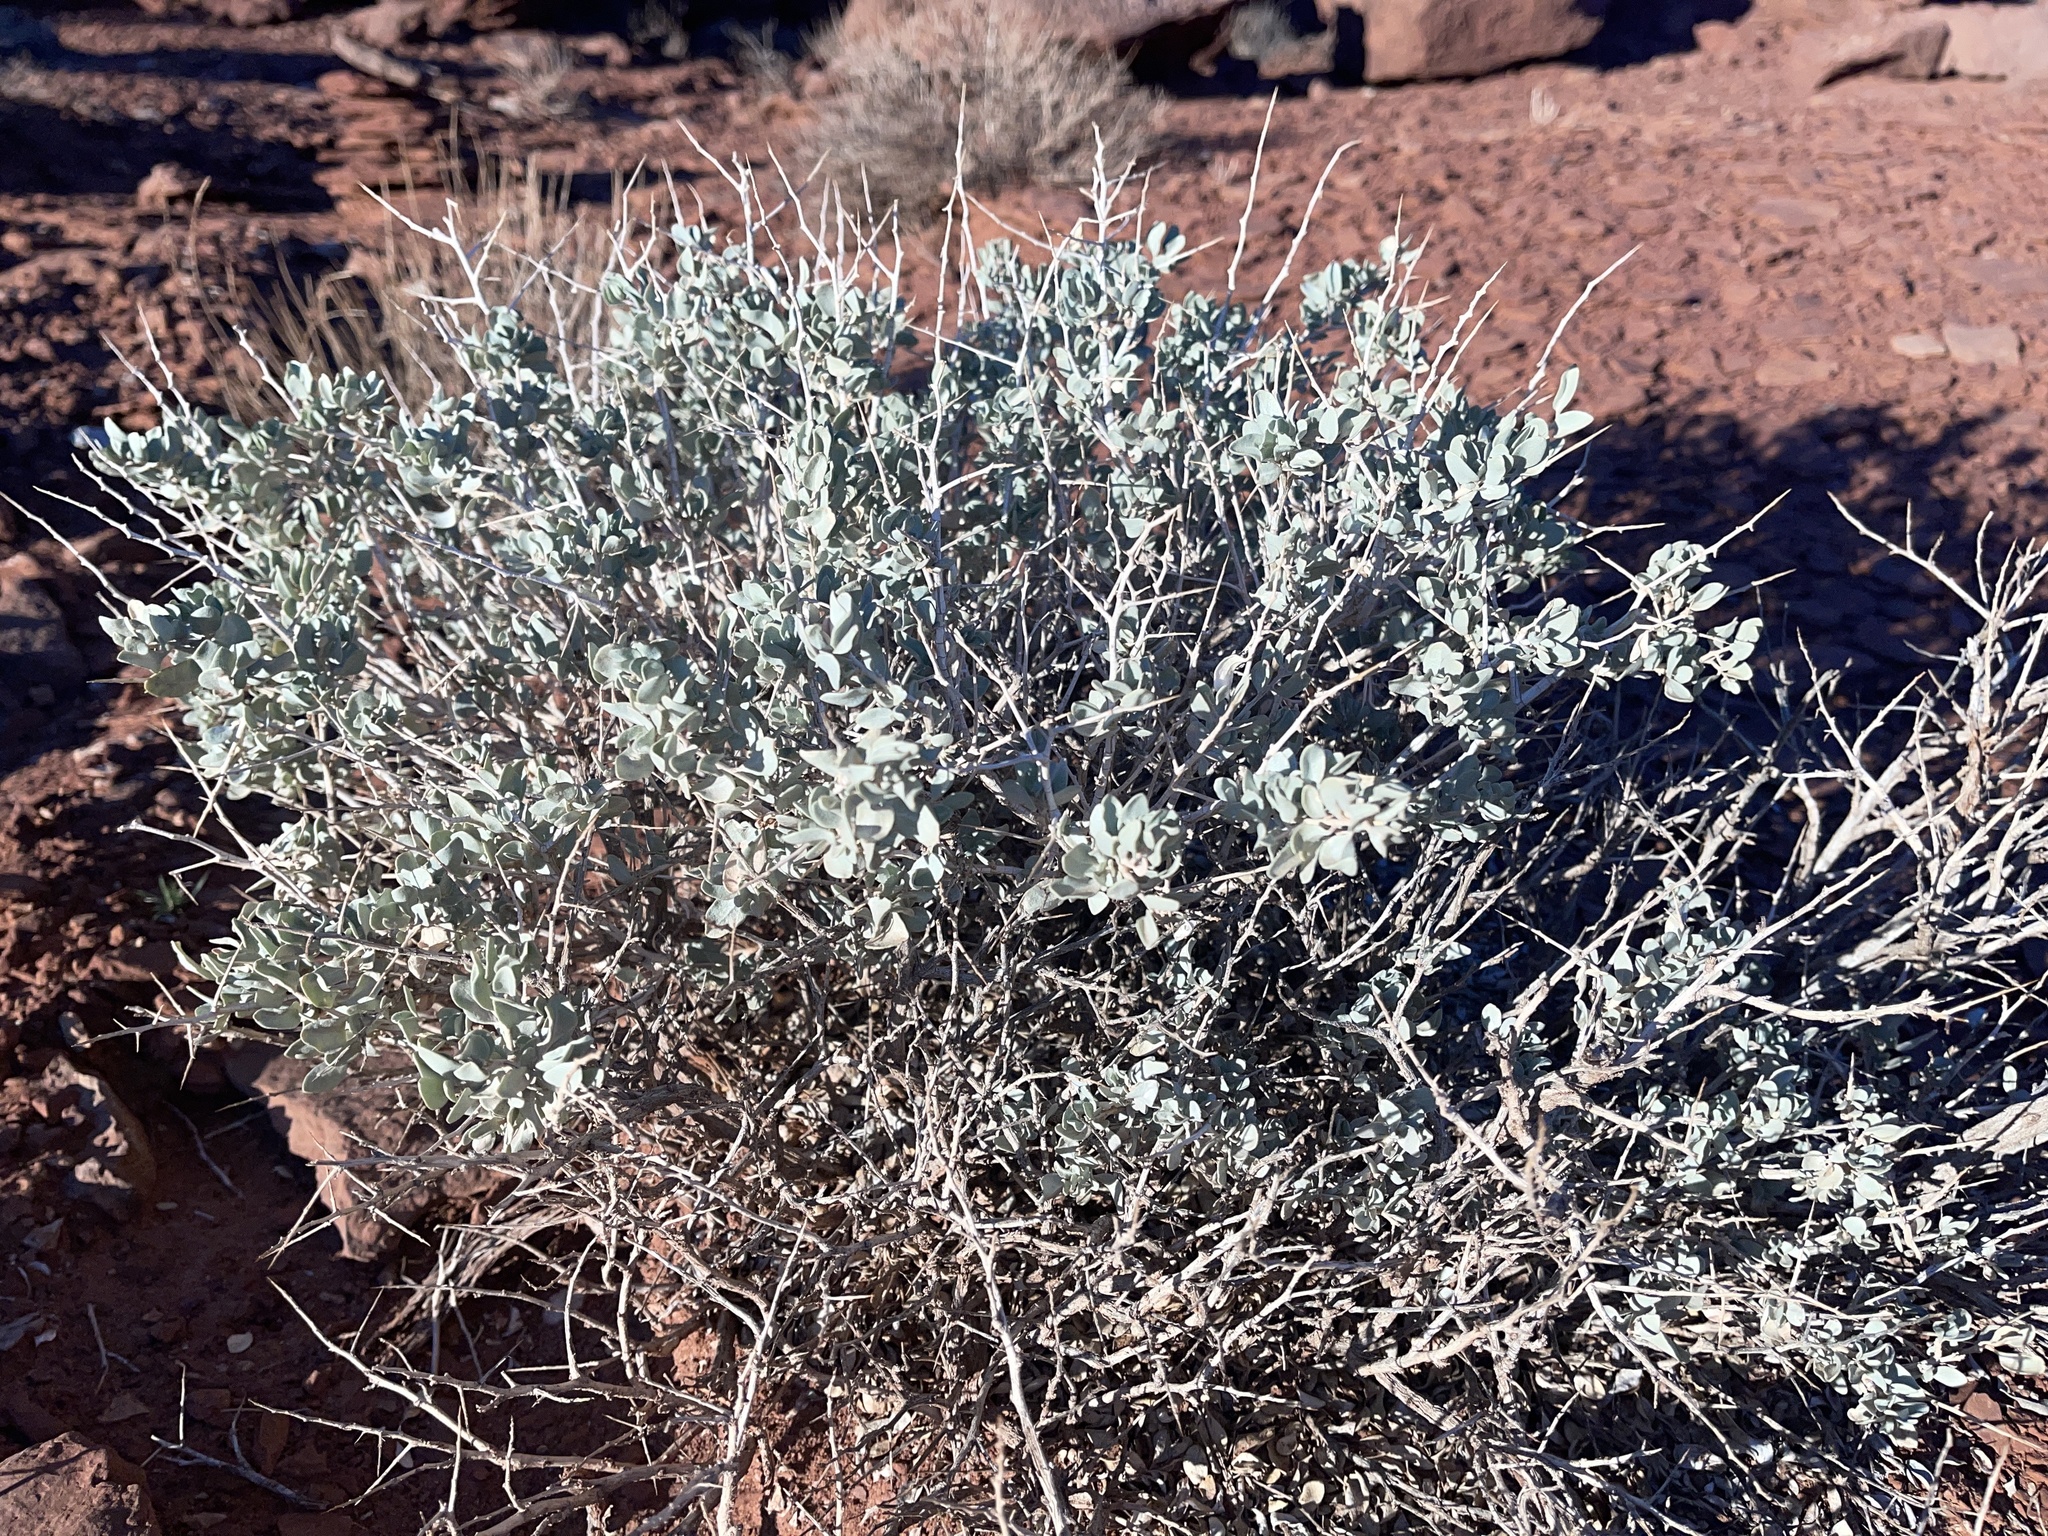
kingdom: Plantae
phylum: Tracheophyta
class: Magnoliopsida
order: Caryophyllales
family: Amaranthaceae
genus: Atriplex
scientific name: Atriplex confertifolia
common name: Shadscale
